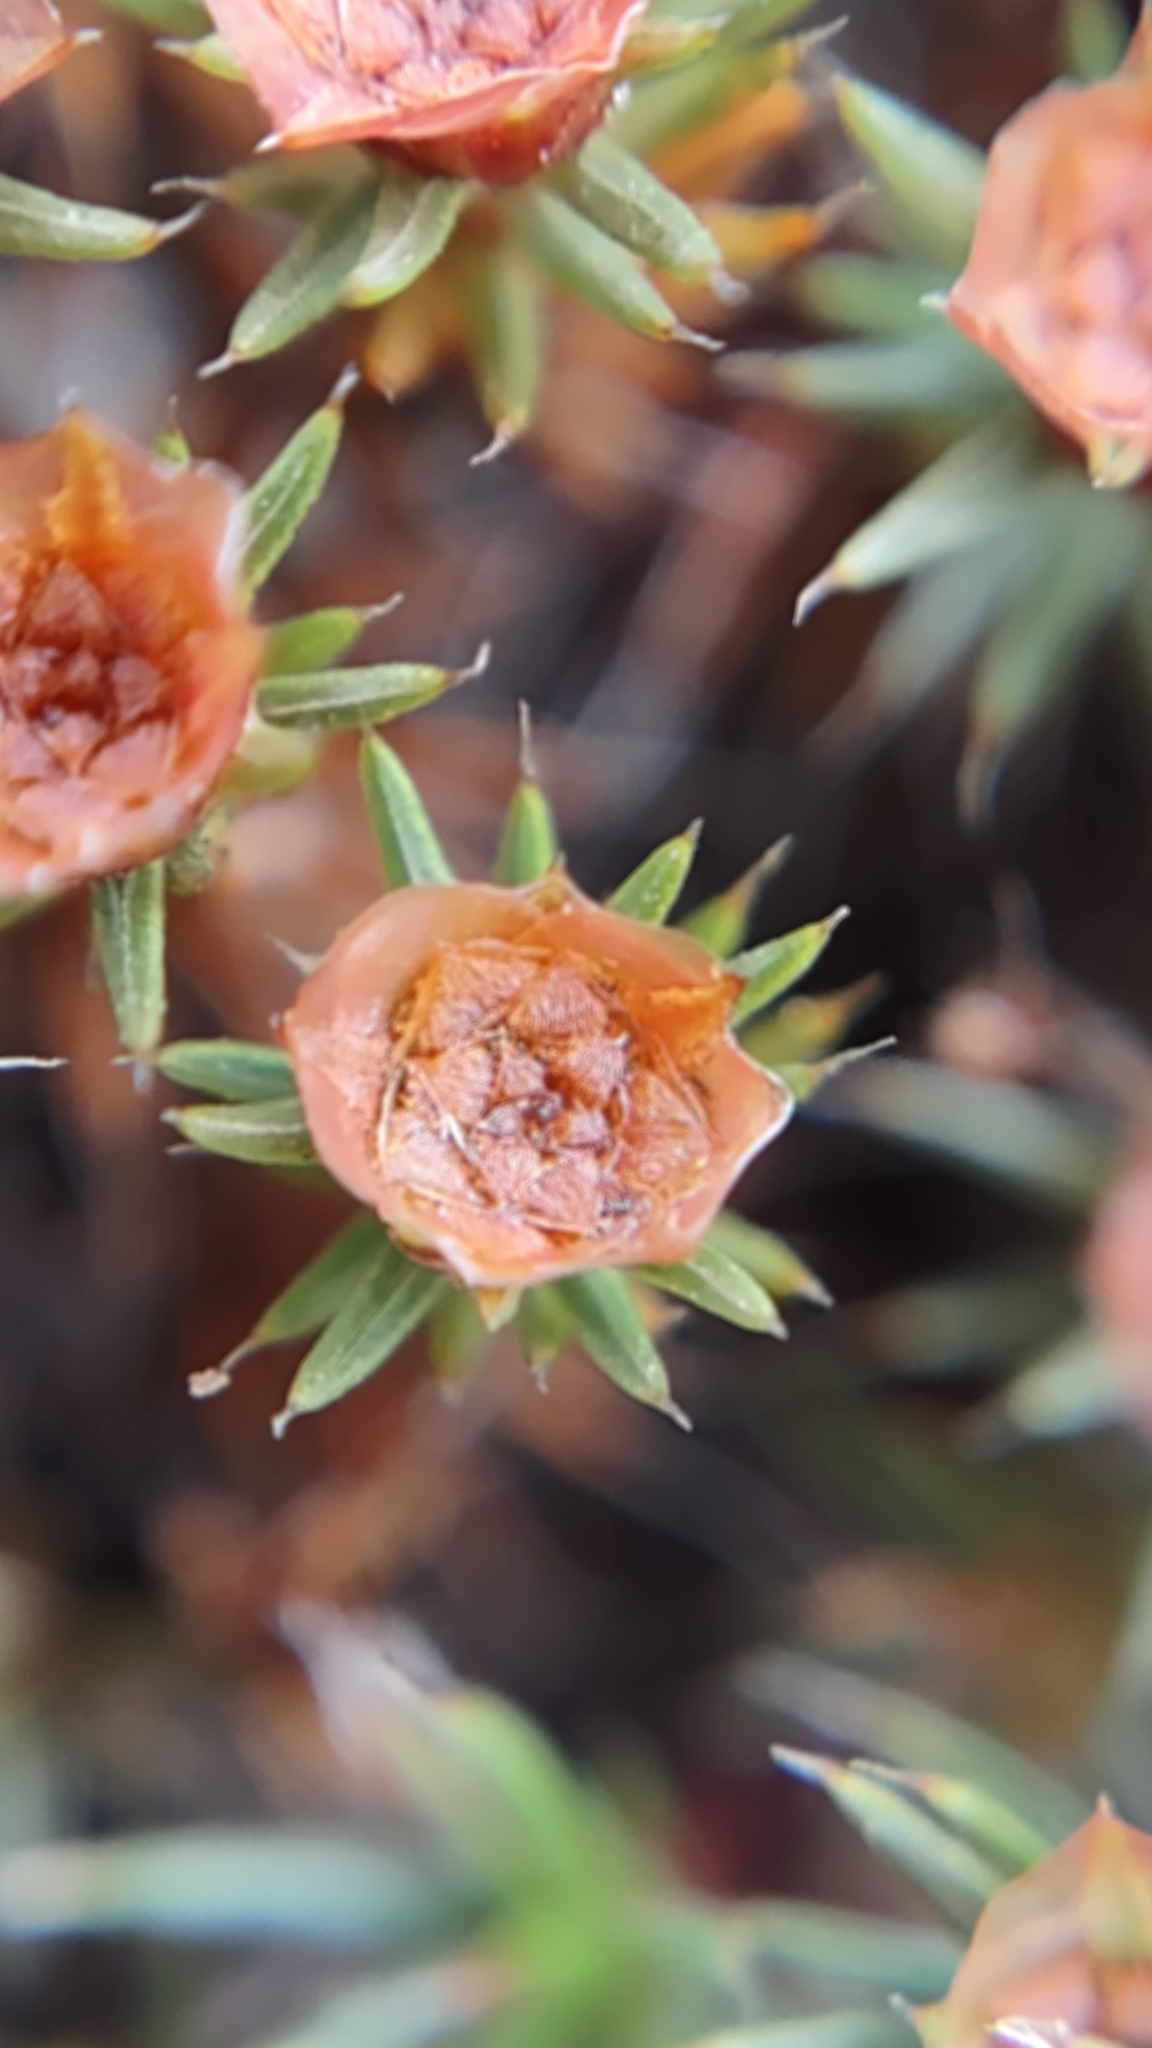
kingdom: Plantae
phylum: Bryophyta
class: Polytrichopsida
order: Polytrichales
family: Polytrichaceae
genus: Polytrichum
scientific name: Polytrichum piliferum
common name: Bristly haircap
